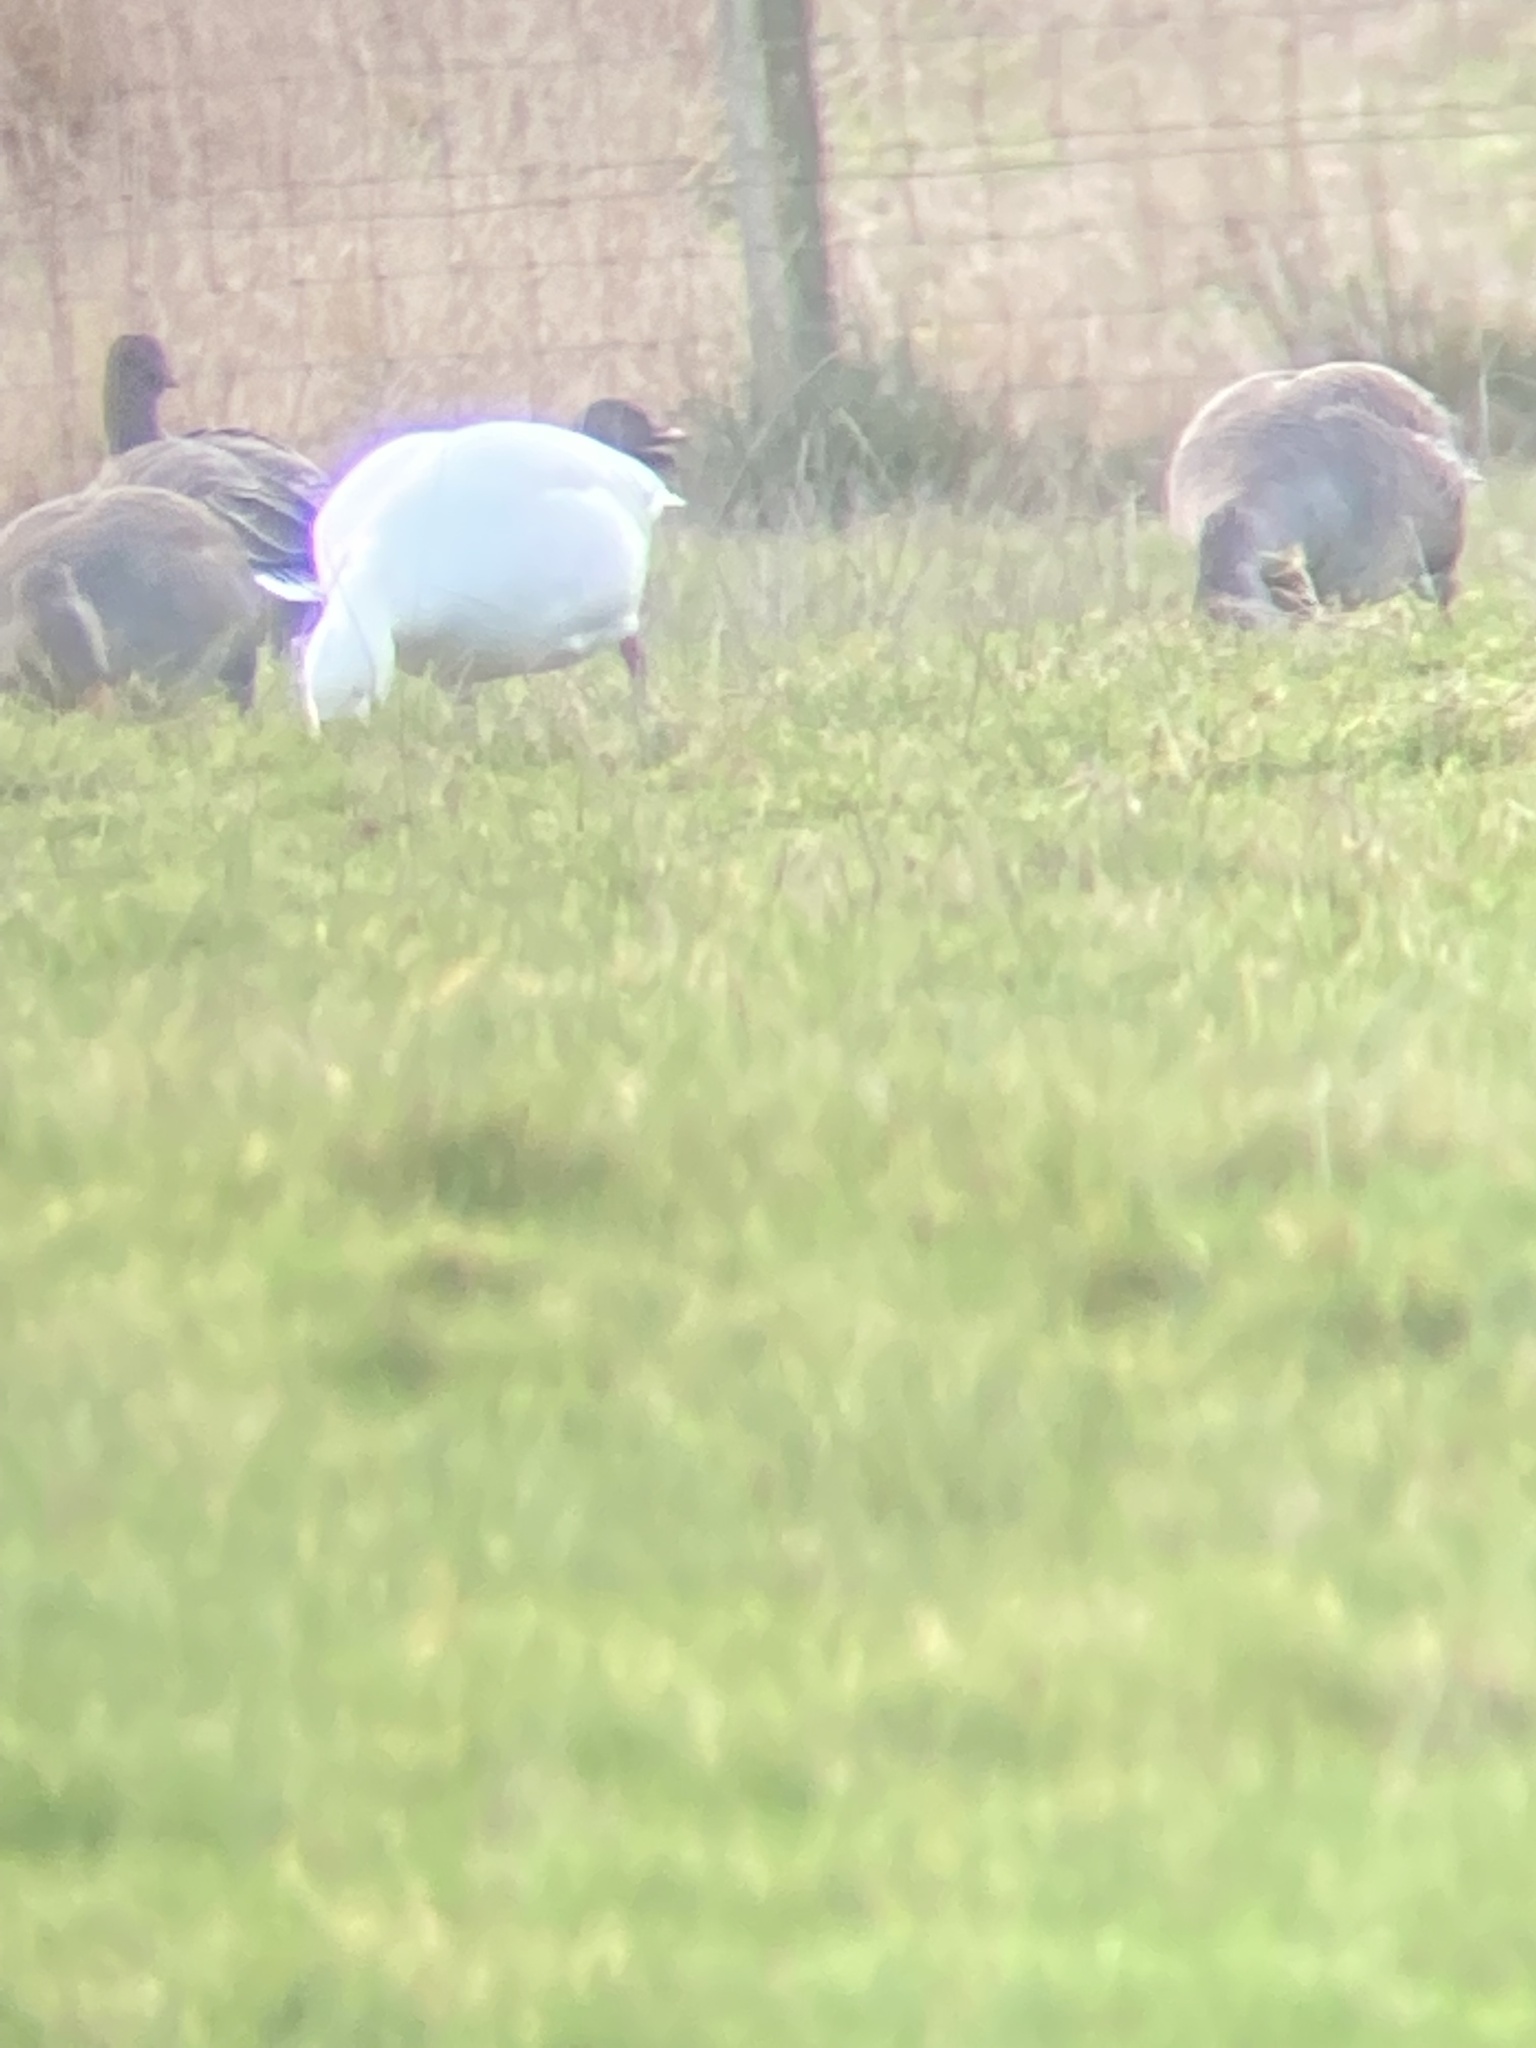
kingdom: Animalia
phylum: Chordata
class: Aves
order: Anseriformes
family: Anatidae
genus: Anser
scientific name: Anser caerulescens
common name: Snow goose
